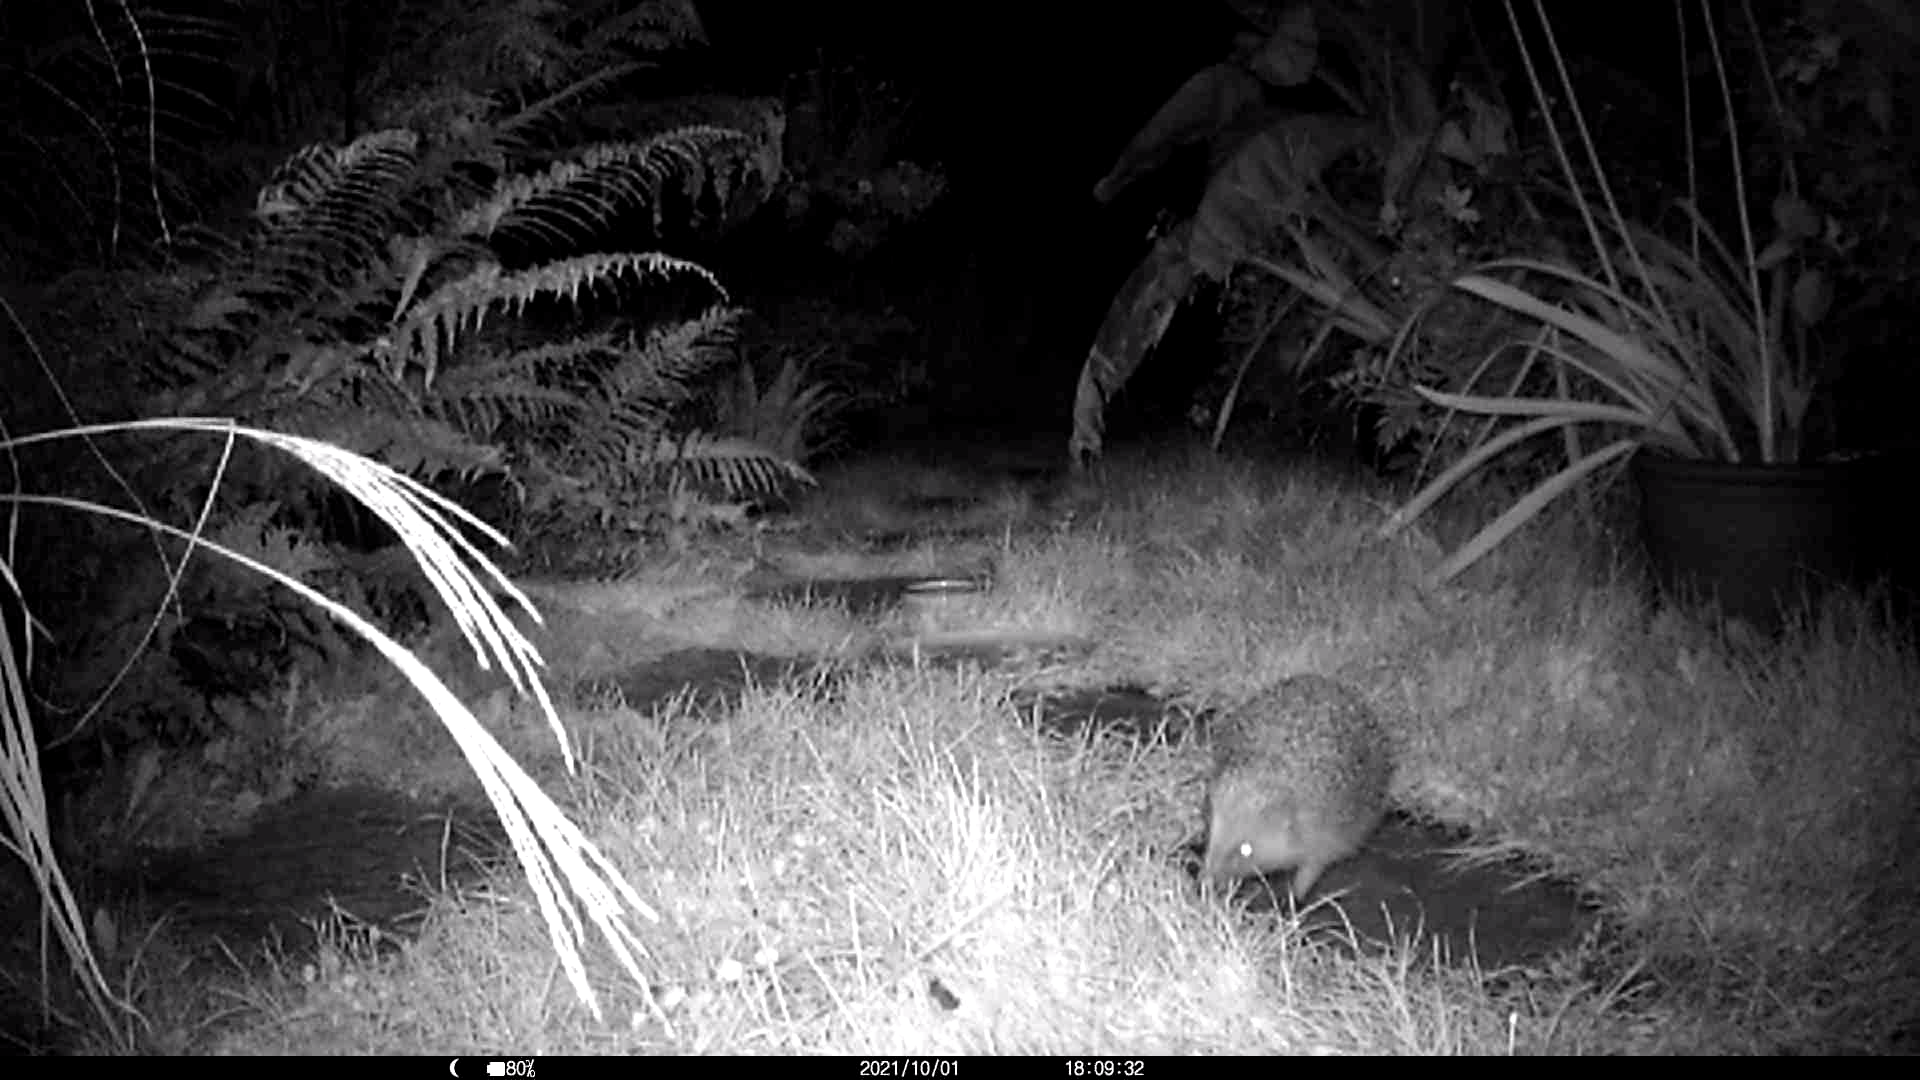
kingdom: Animalia
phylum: Chordata
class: Mammalia
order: Erinaceomorpha
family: Erinaceidae
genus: Erinaceus
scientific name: Erinaceus europaeus
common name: West european hedgehog
